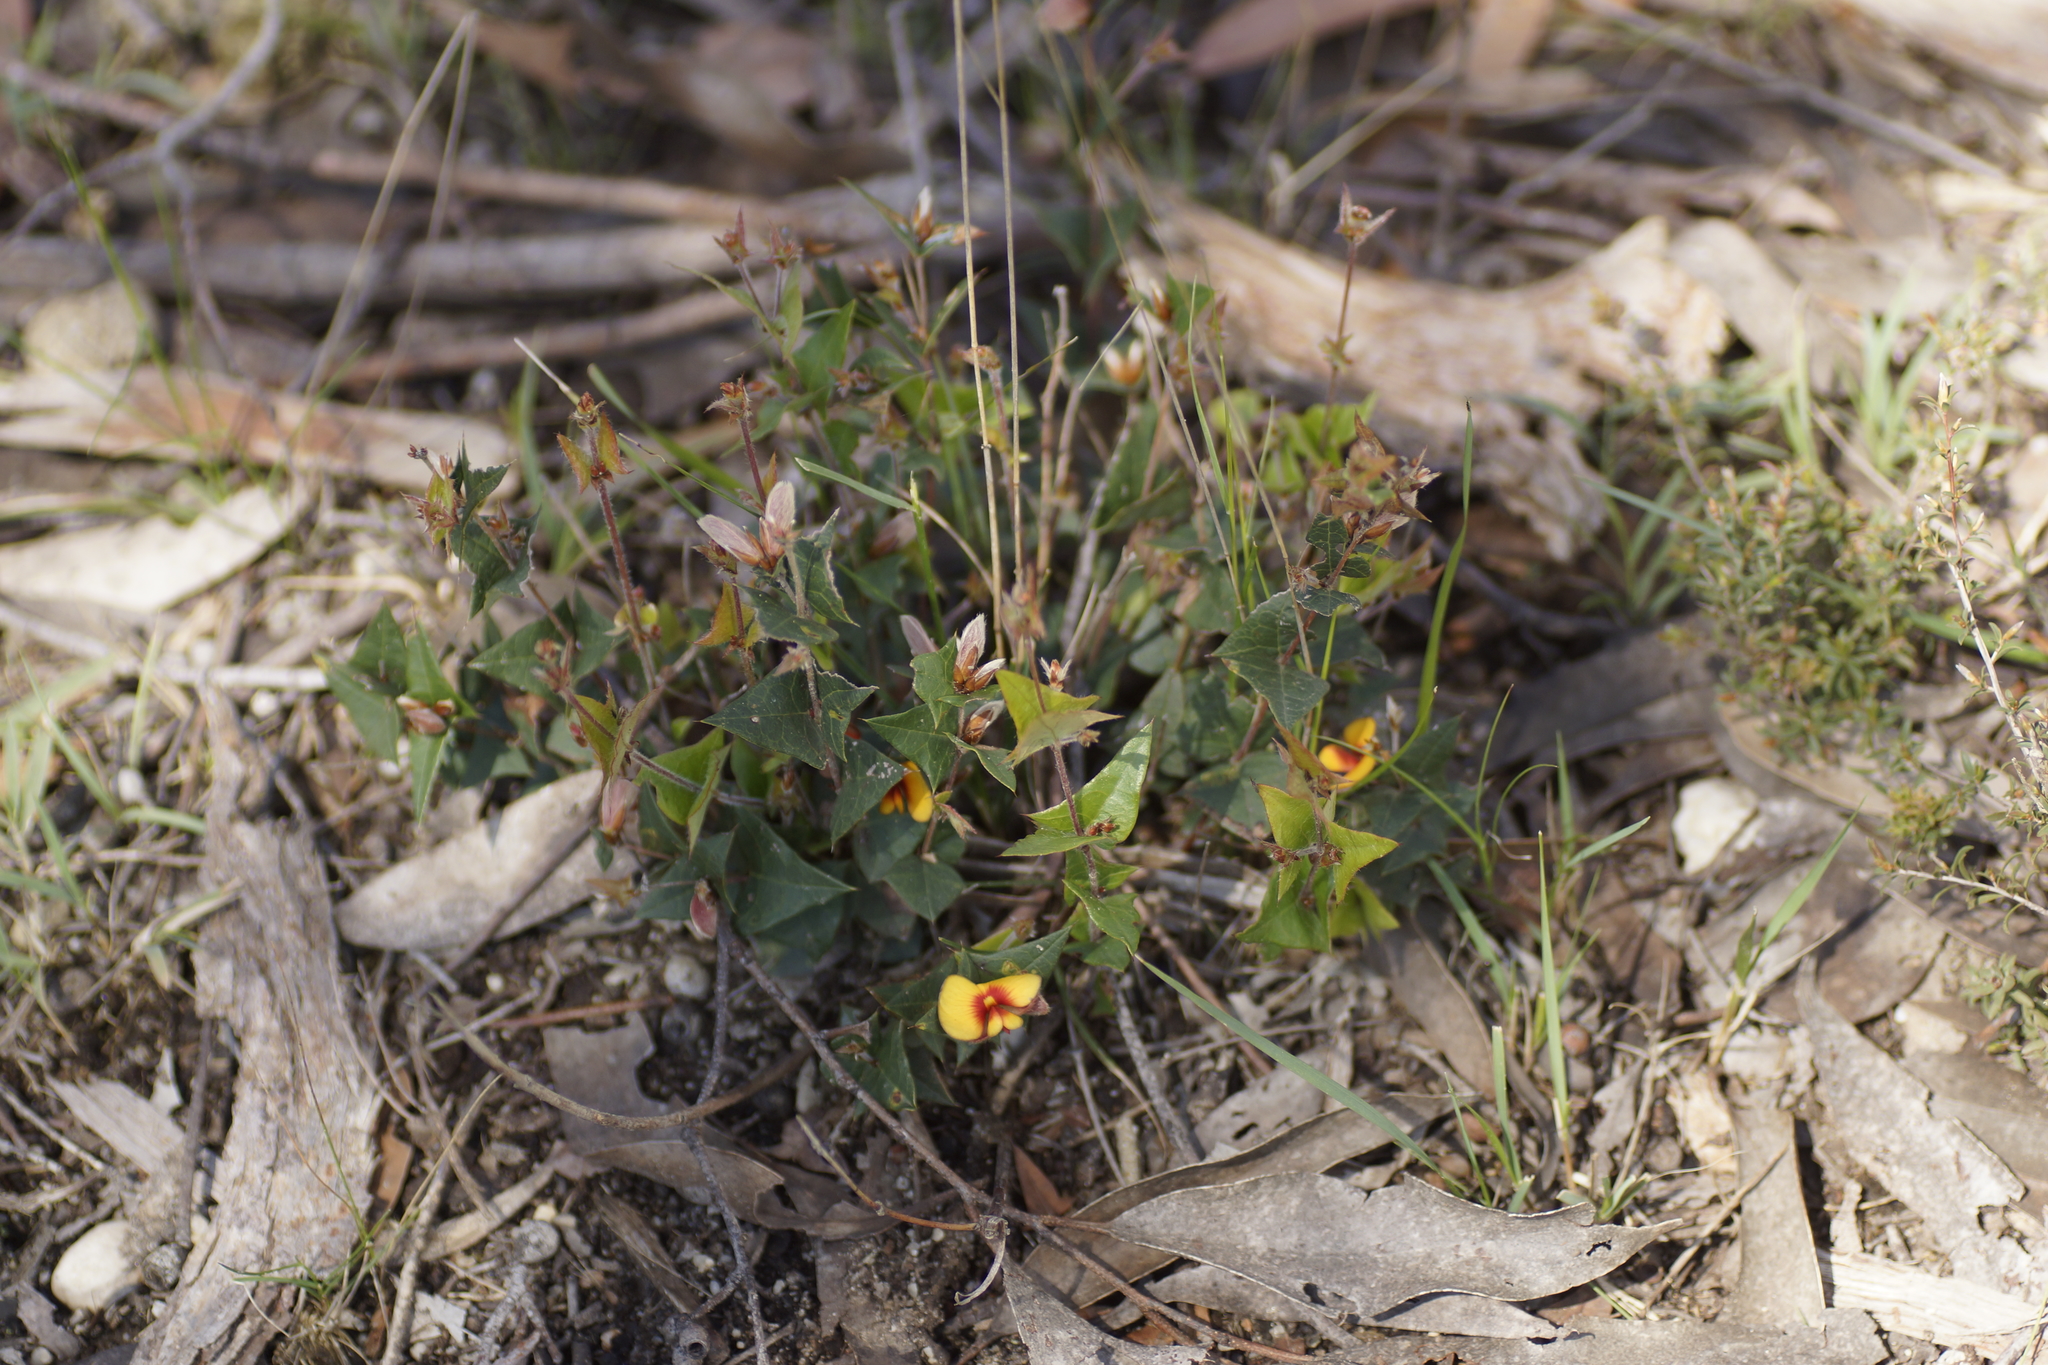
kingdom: Plantae
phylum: Tracheophyta
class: Magnoliopsida
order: Fabales
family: Fabaceae
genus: Platylobium
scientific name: Platylobium obtusangulum
